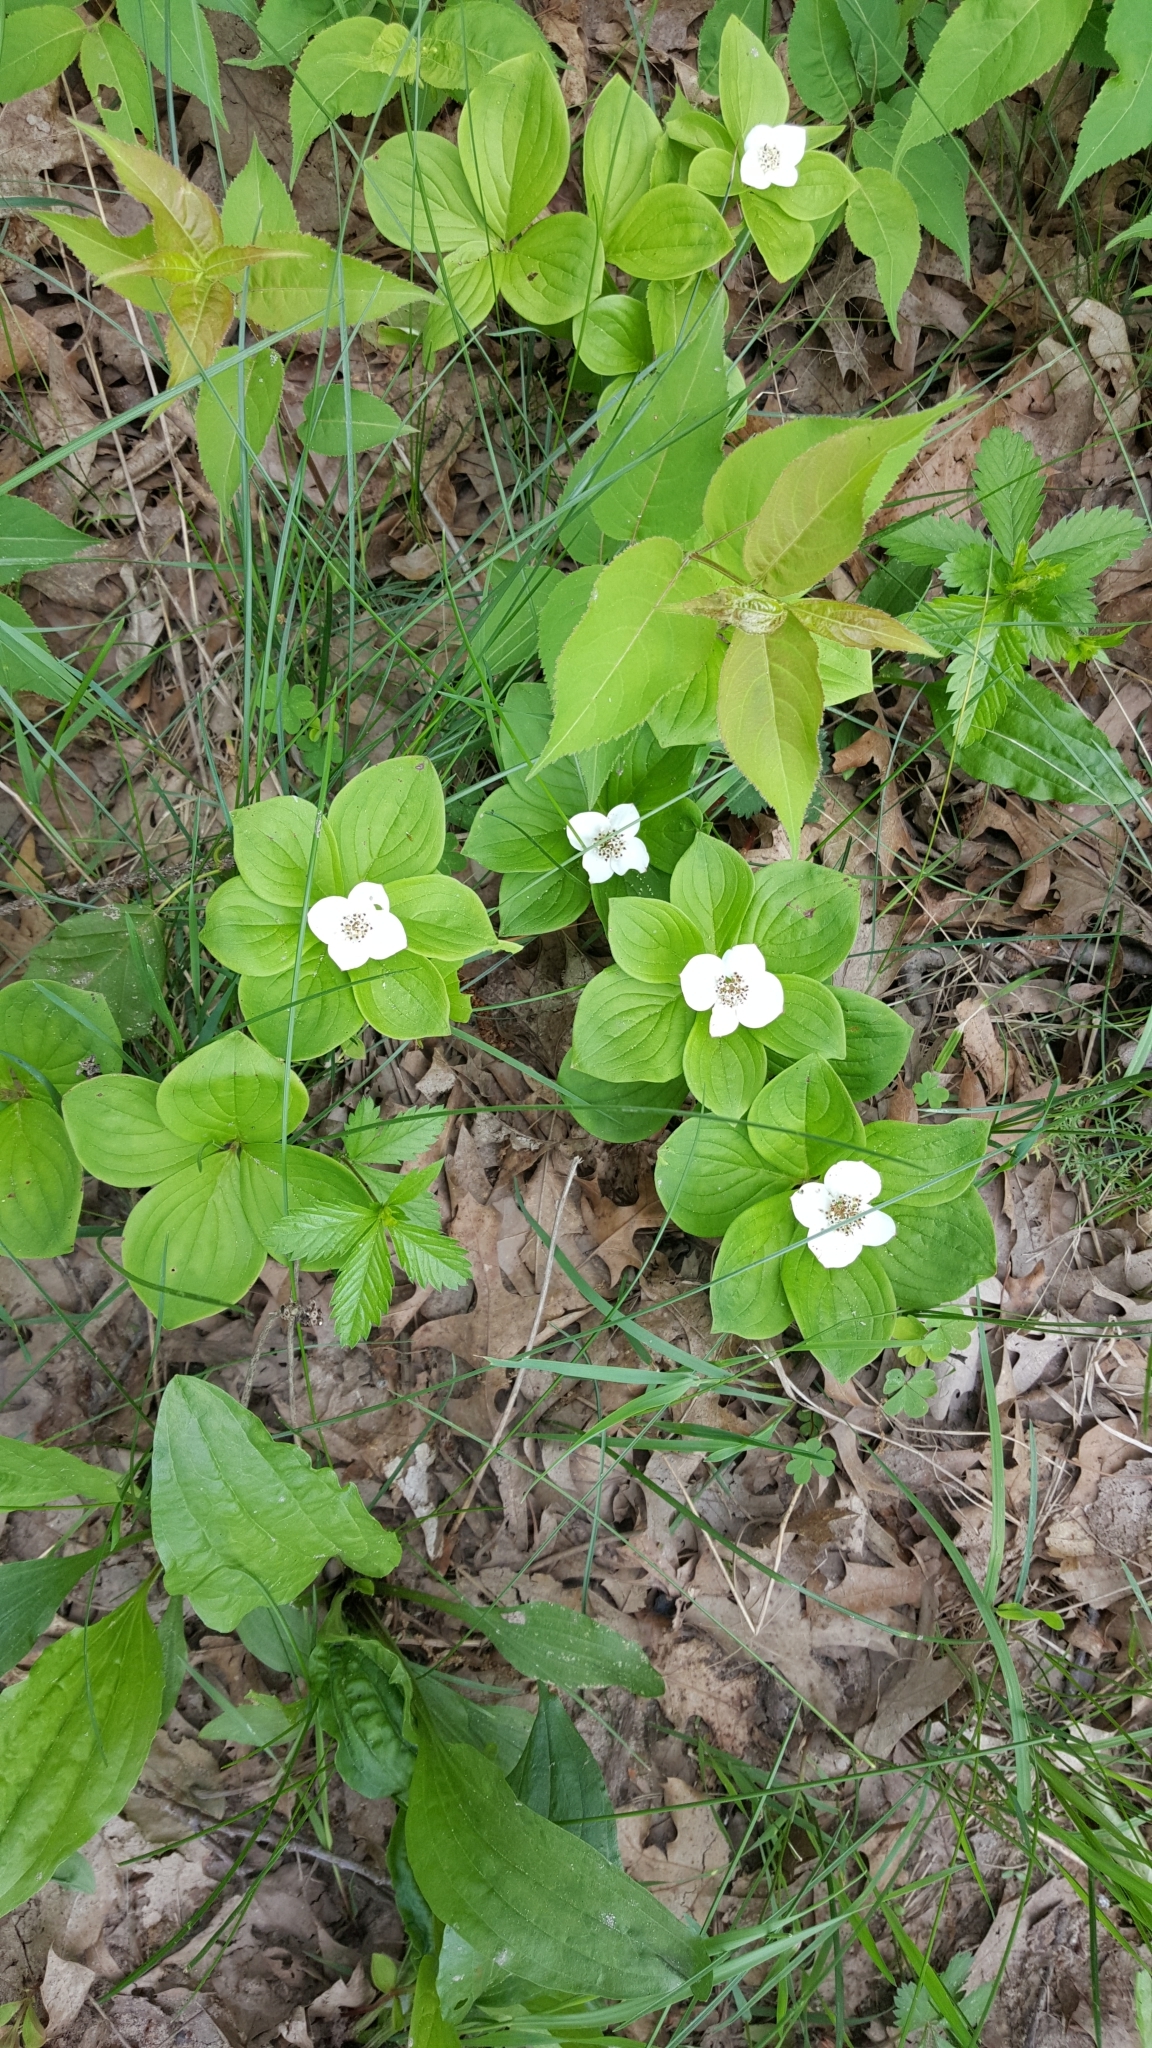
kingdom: Plantae
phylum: Tracheophyta
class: Magnoliopsida
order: Cornales
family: Cornaceae
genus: Cornus
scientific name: Cornus canadensis
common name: Creeping dogwood
